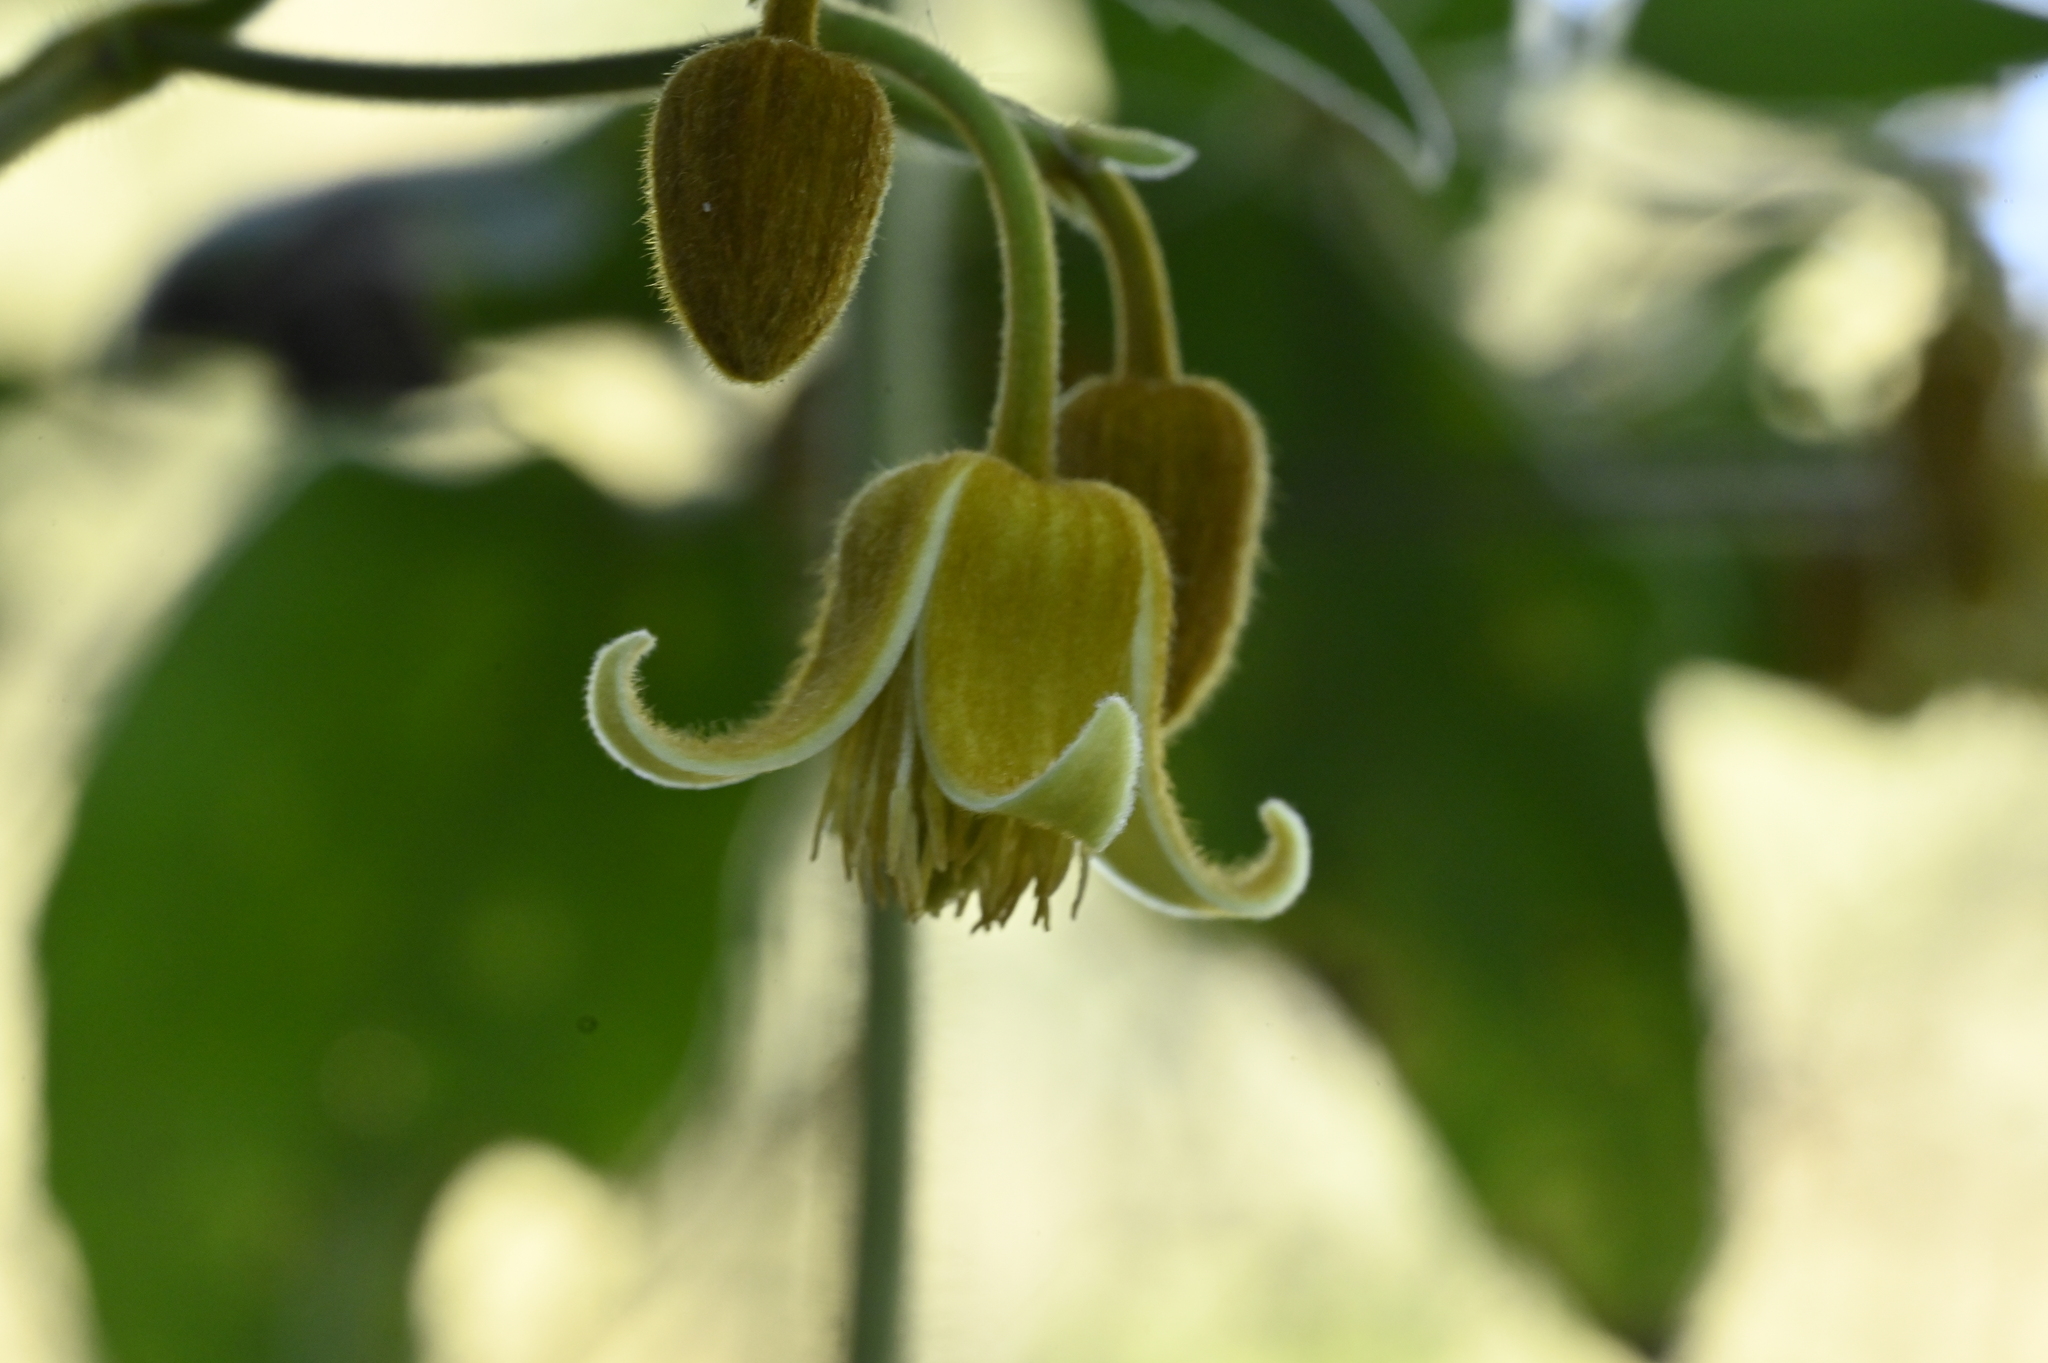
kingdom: Plantae
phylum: Tracheophyta
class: Magnoliopsida
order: Ranunculales
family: Ranunculaceae
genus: Clematis
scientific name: Clematis leschenaultiana
